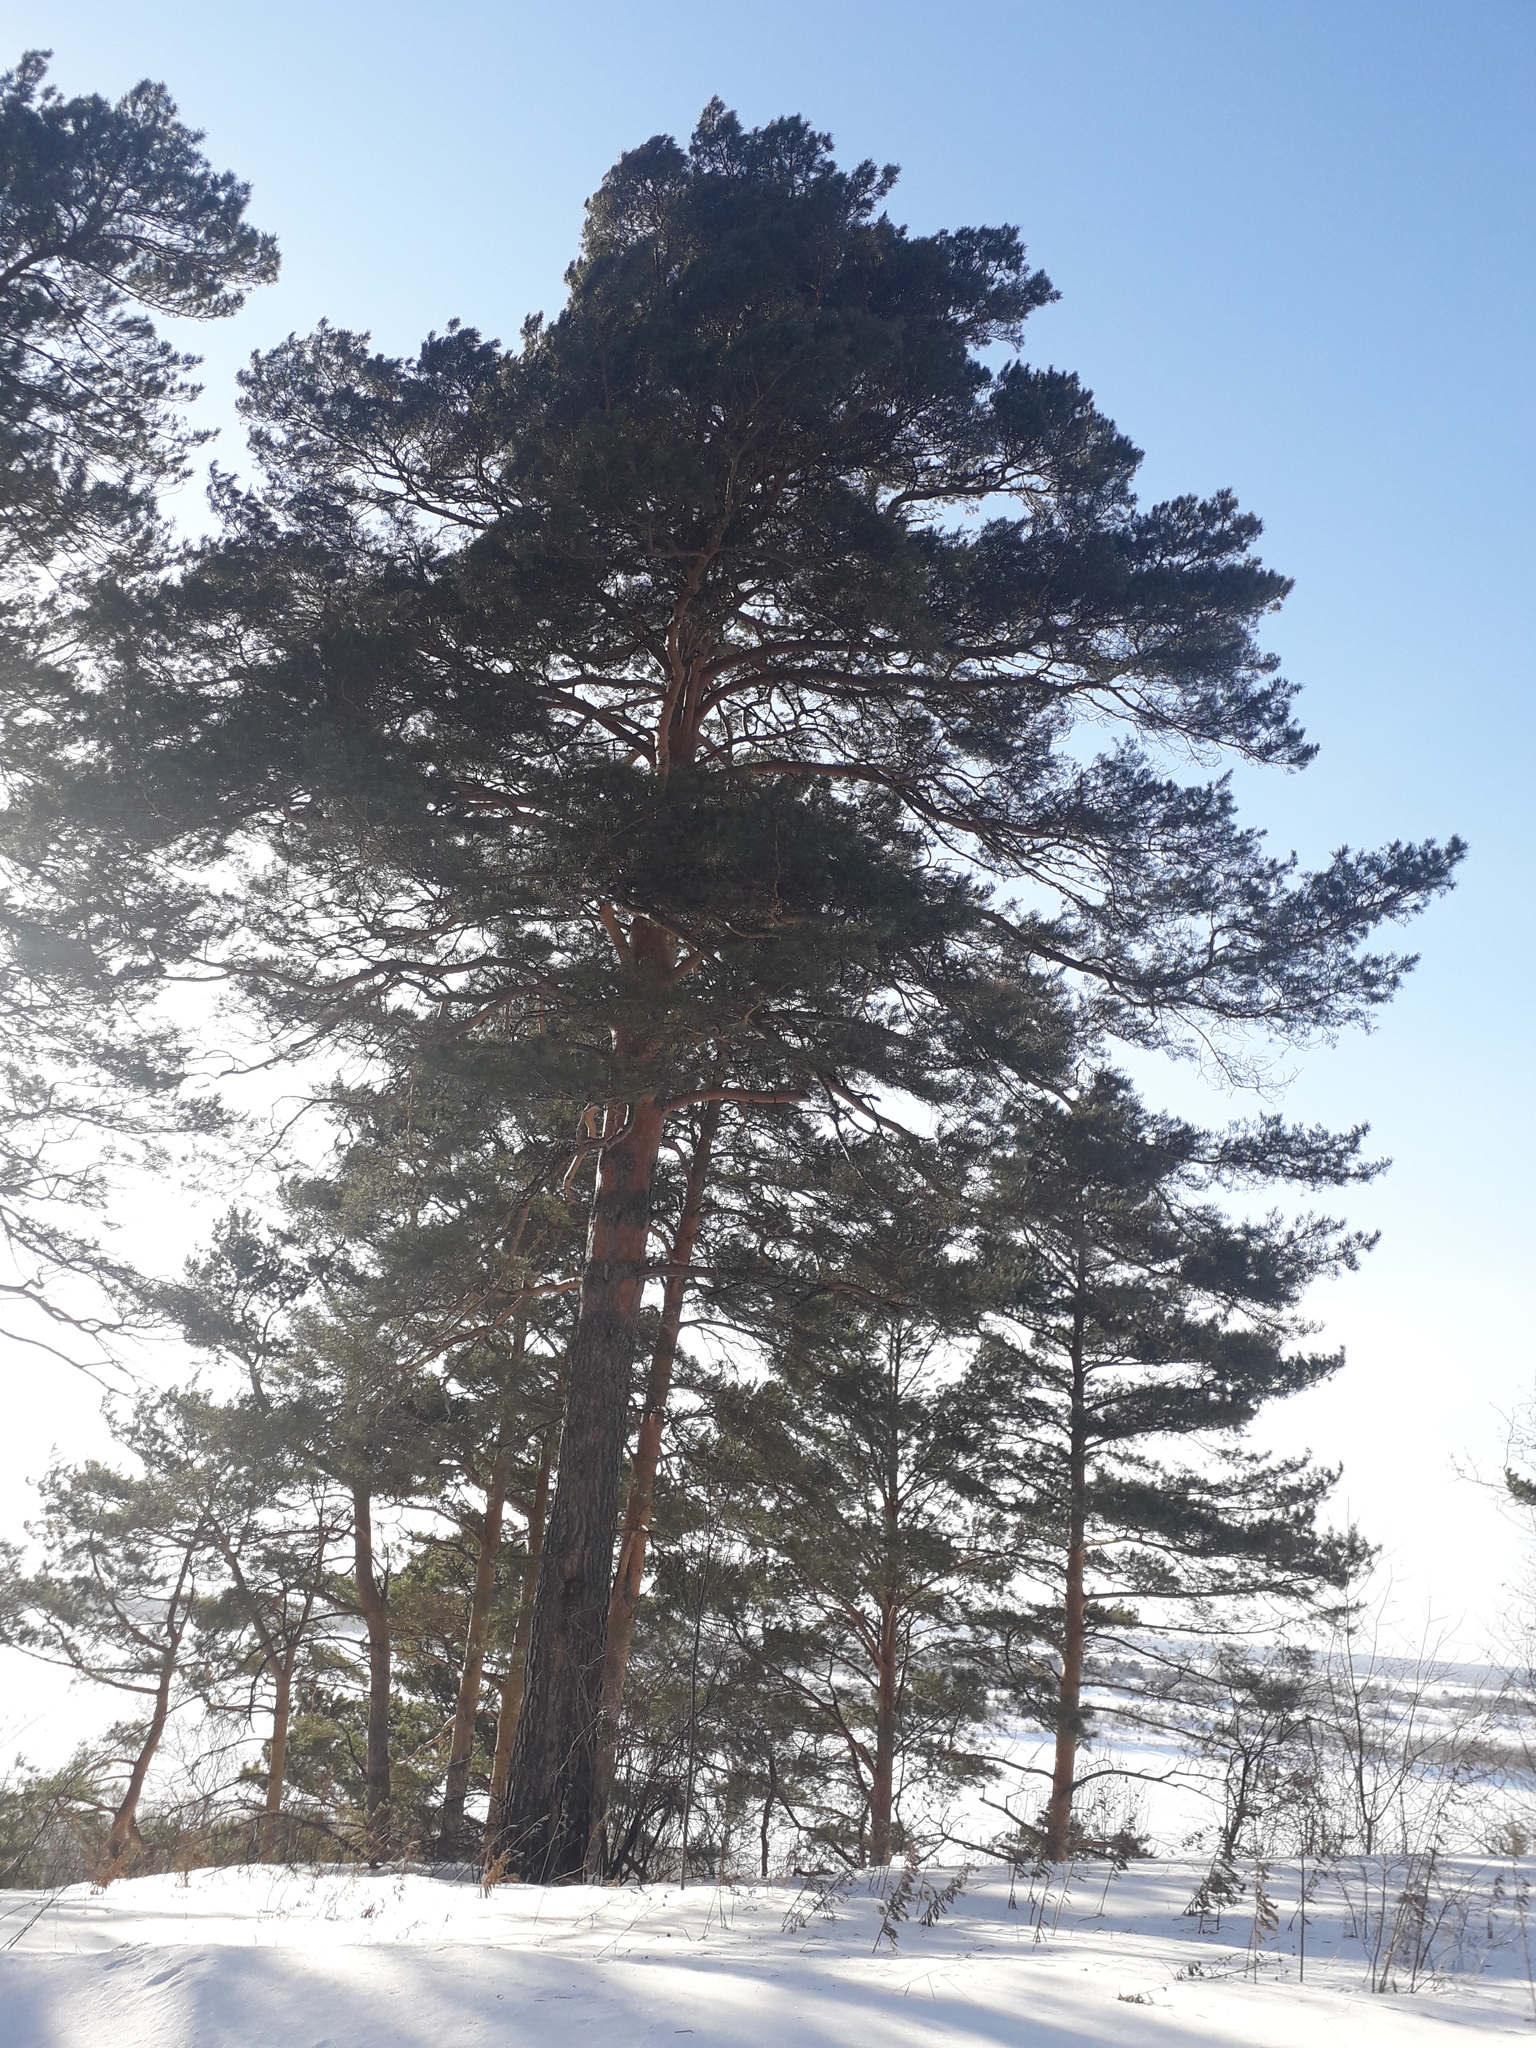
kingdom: Plantae
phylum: Tracheophyta
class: Pinopsida
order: Pinales
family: Pinaceae
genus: Pinus
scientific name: Pinus sylvestris
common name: Scots pine
